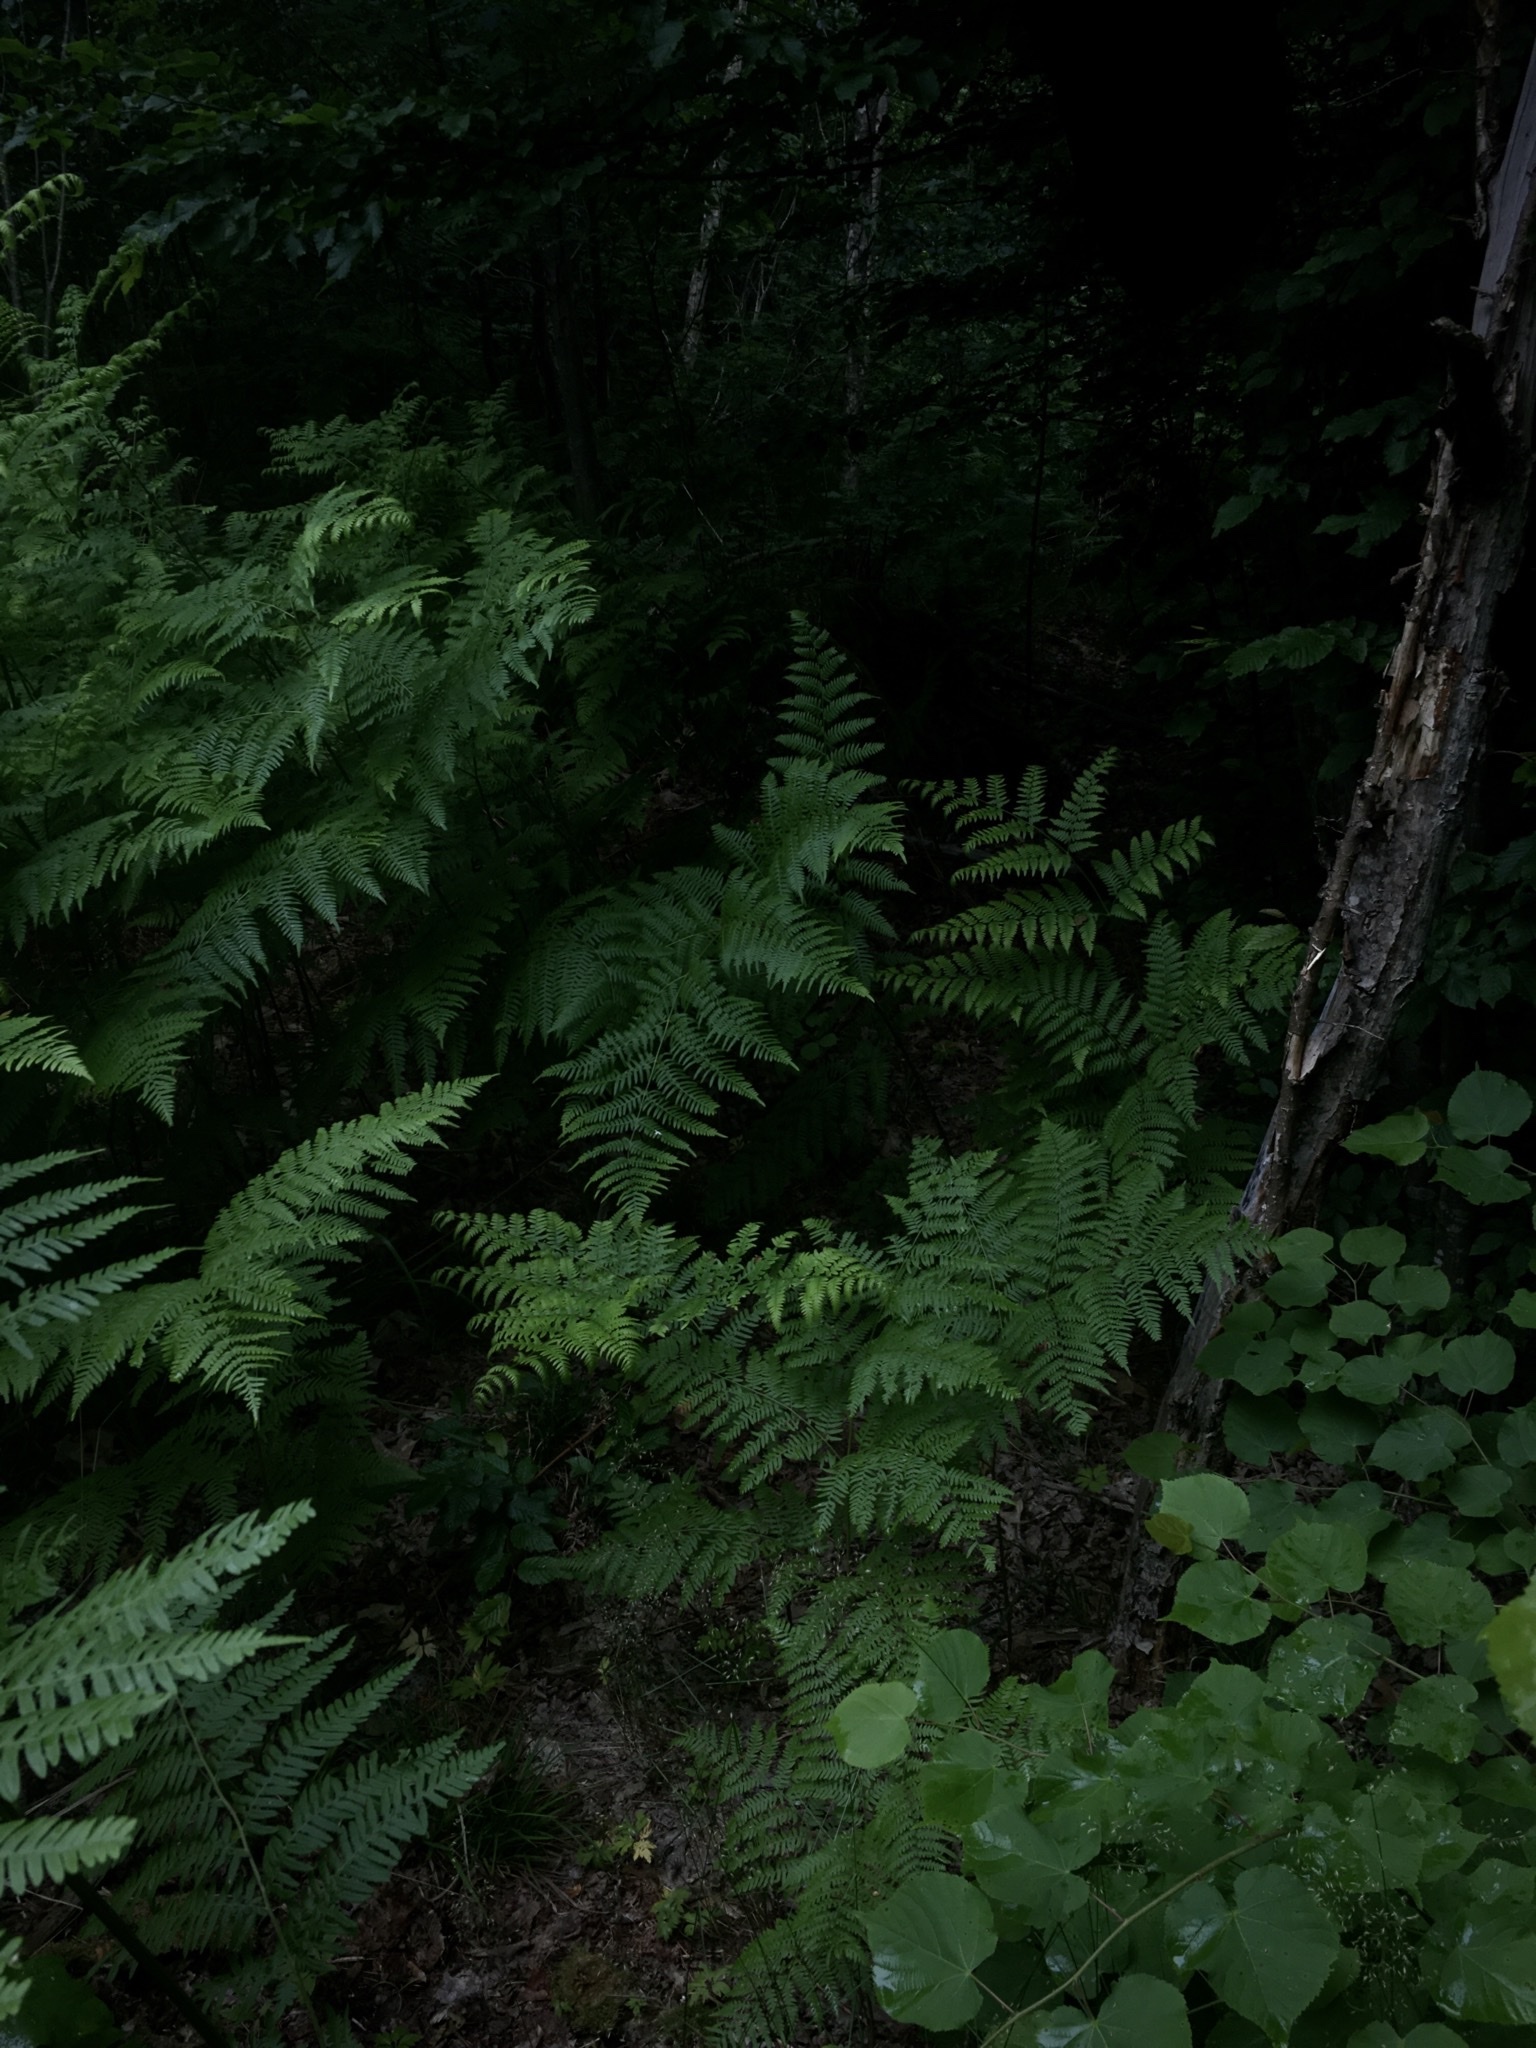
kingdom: Plantae
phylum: Tracheophyta
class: Polypodiopsida
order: Polypodiales
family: Dennstaedtiaceae
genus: Pteridium
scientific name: Pteridium aquilinum
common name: Bracken
